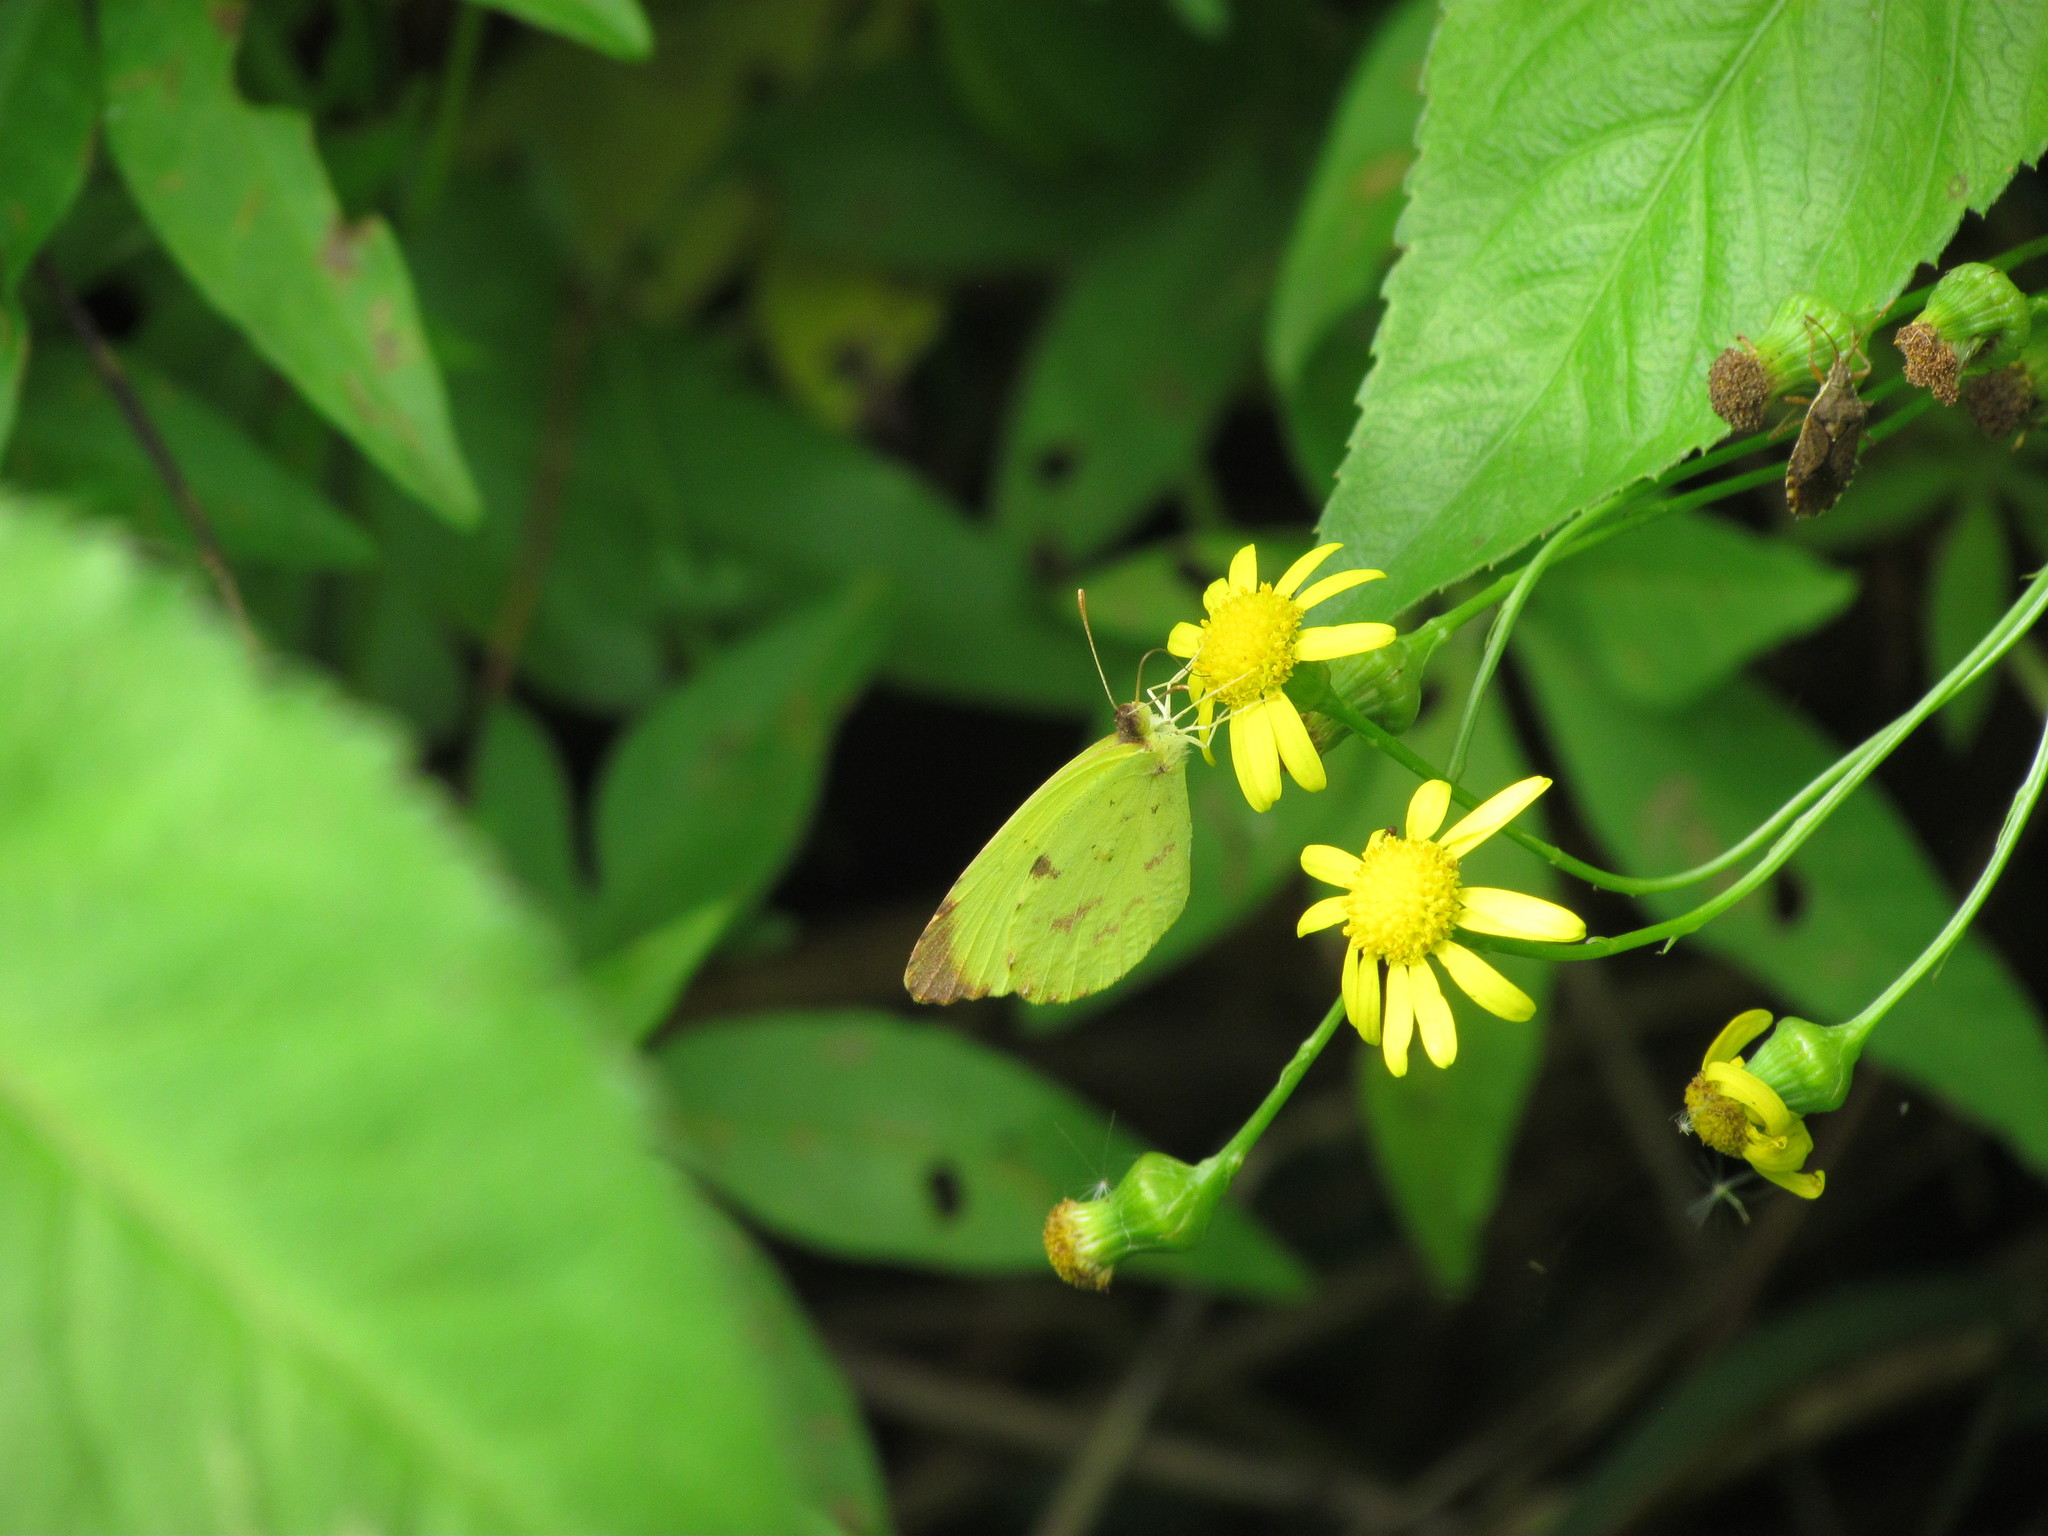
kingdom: Animalia
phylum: Arthropoda
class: Insecta
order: Lepidoptera
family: Pieridae
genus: Teriocolias
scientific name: Teriocolias
